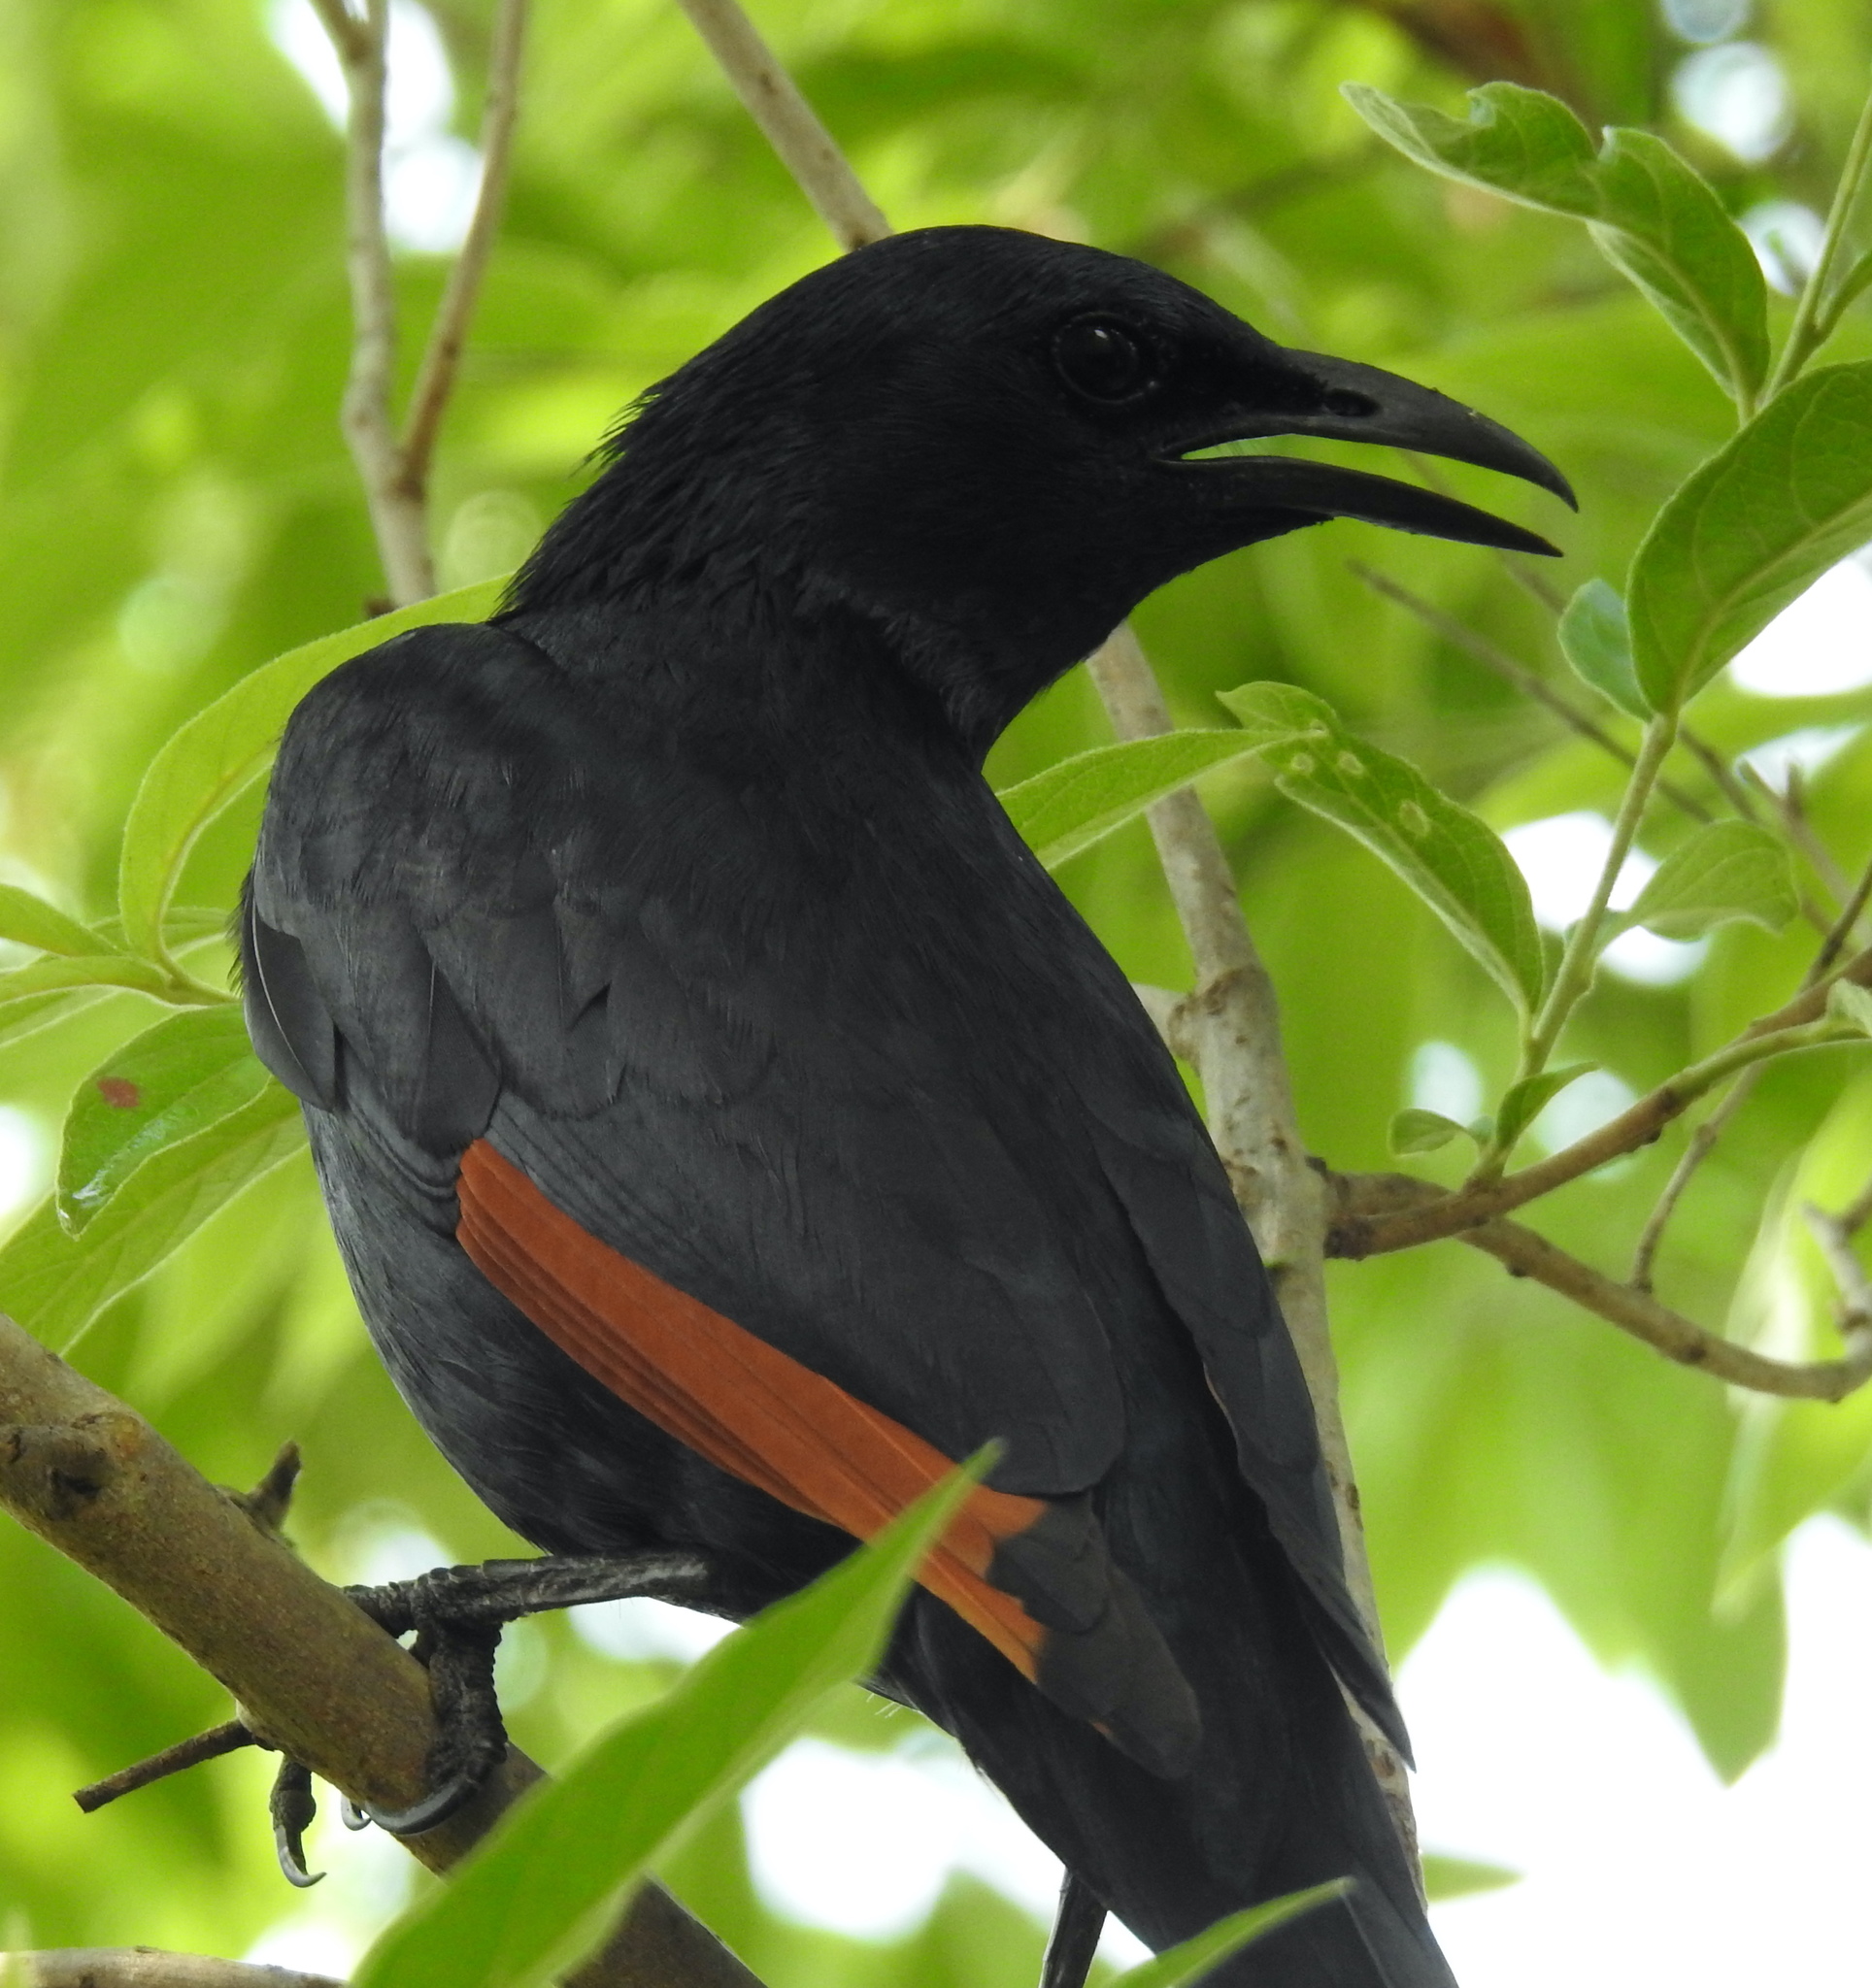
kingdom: Animalia
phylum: Chordata
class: Aves
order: Passeriformes
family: Sturnidae
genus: Onychognathus
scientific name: Onychognathus morio
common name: Red-winged starling
